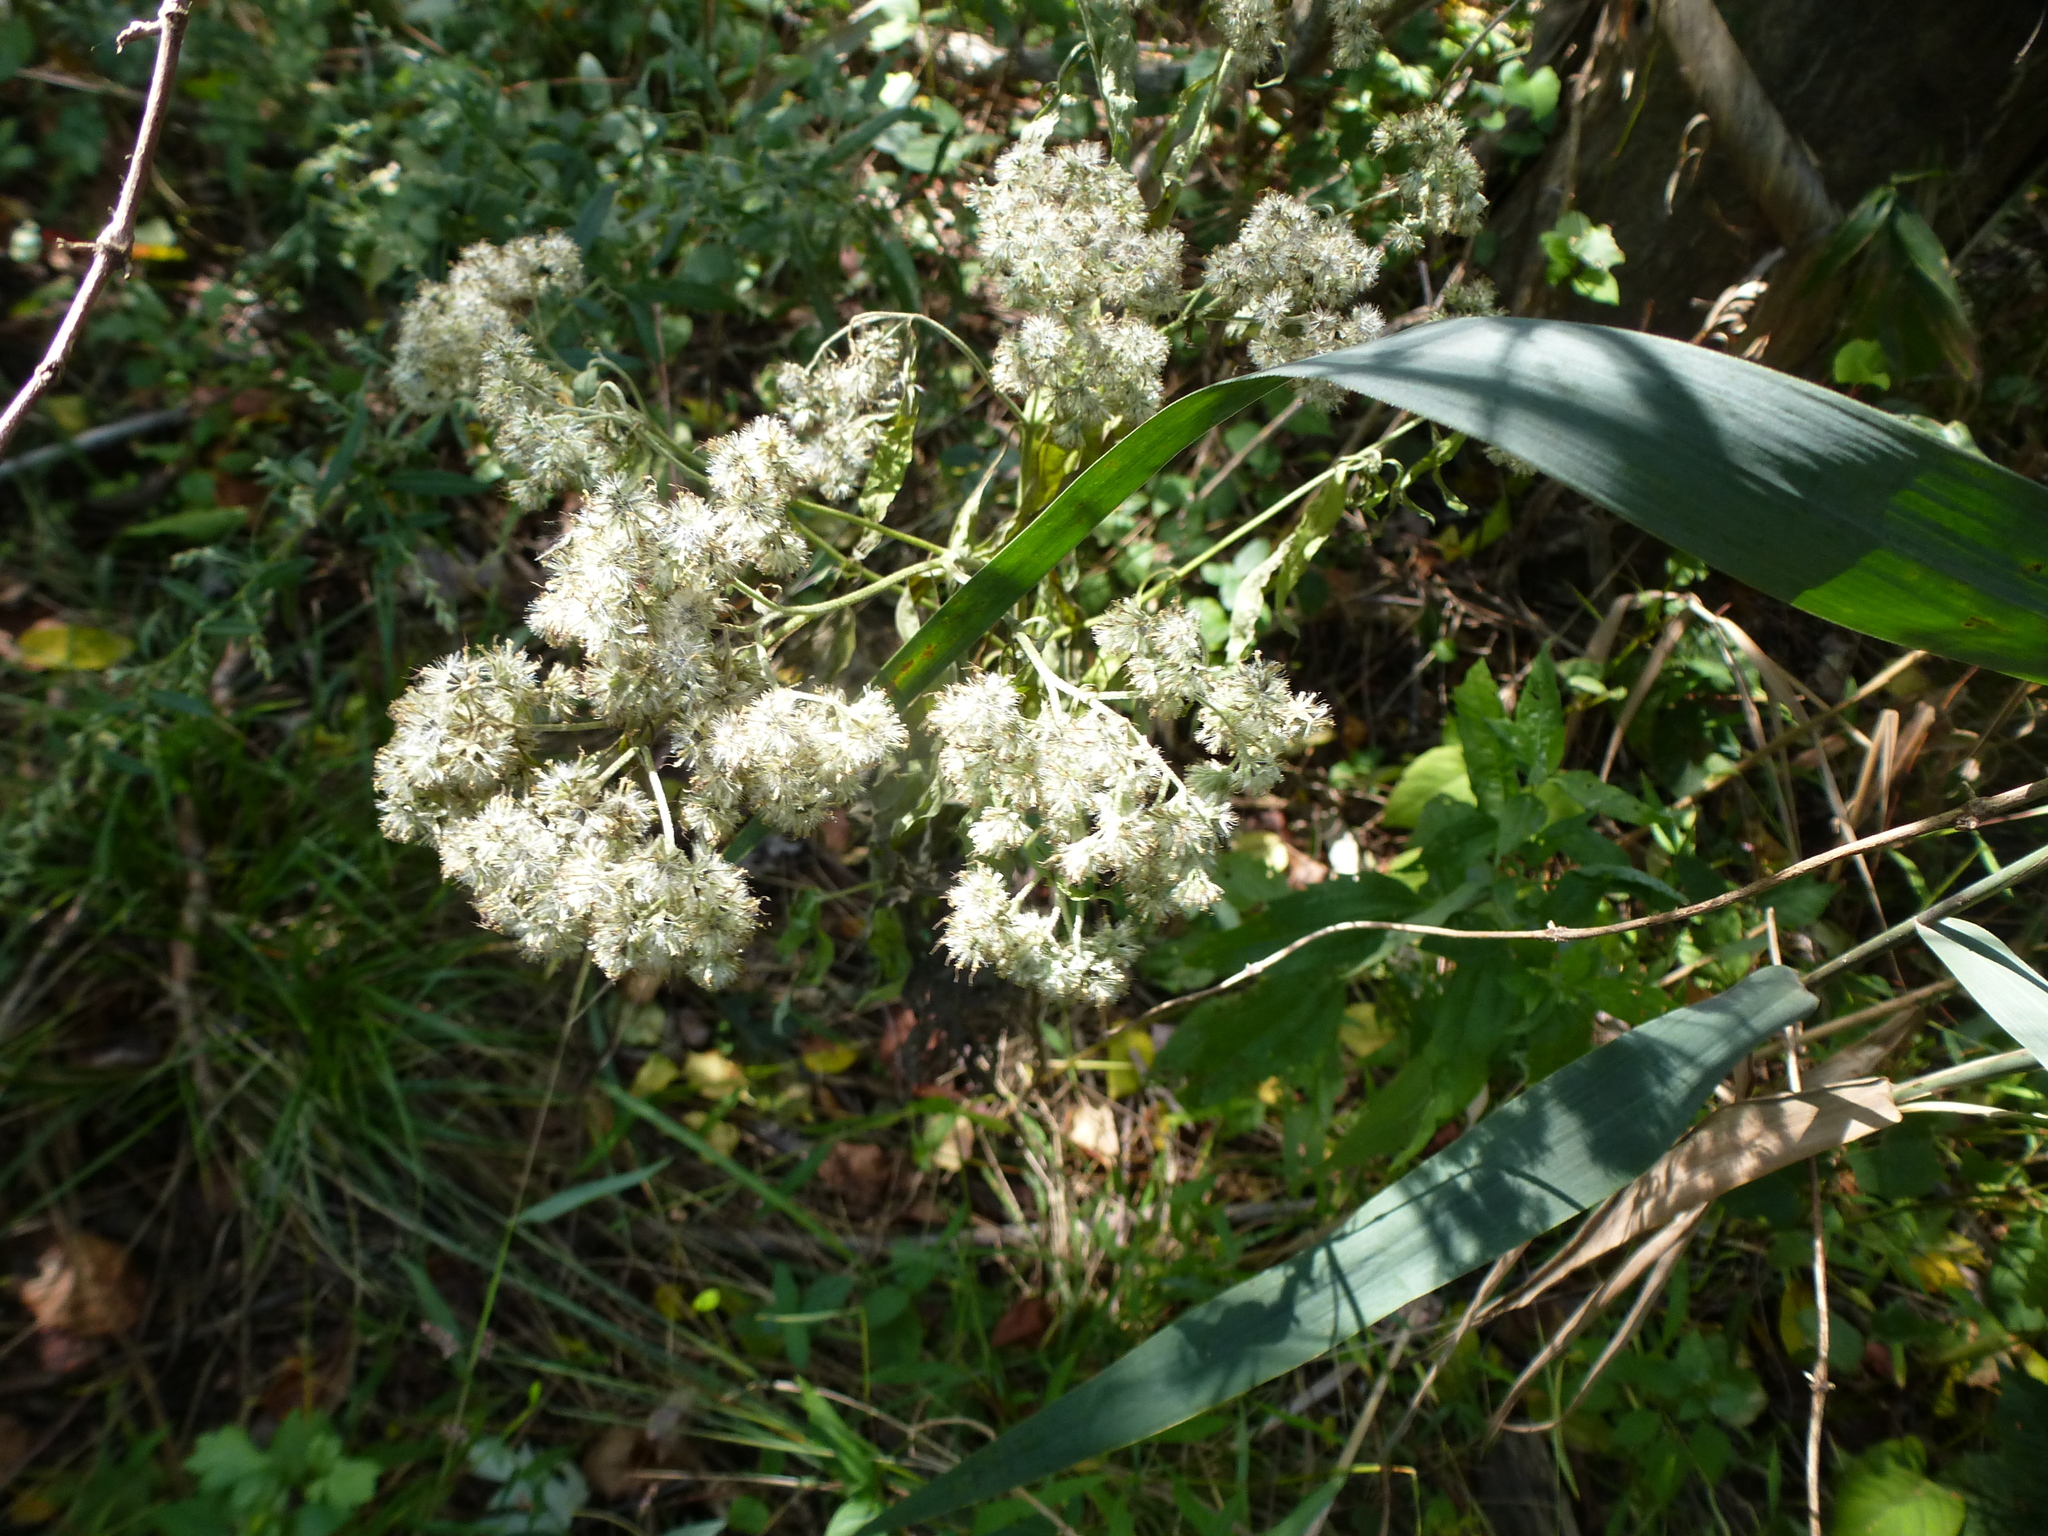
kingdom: Plantae
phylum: Tracheophyta
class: Magnoliopsida
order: Asterales
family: Asteraceae
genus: Ageratina
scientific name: Ageratina altissima
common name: White snakeroot
